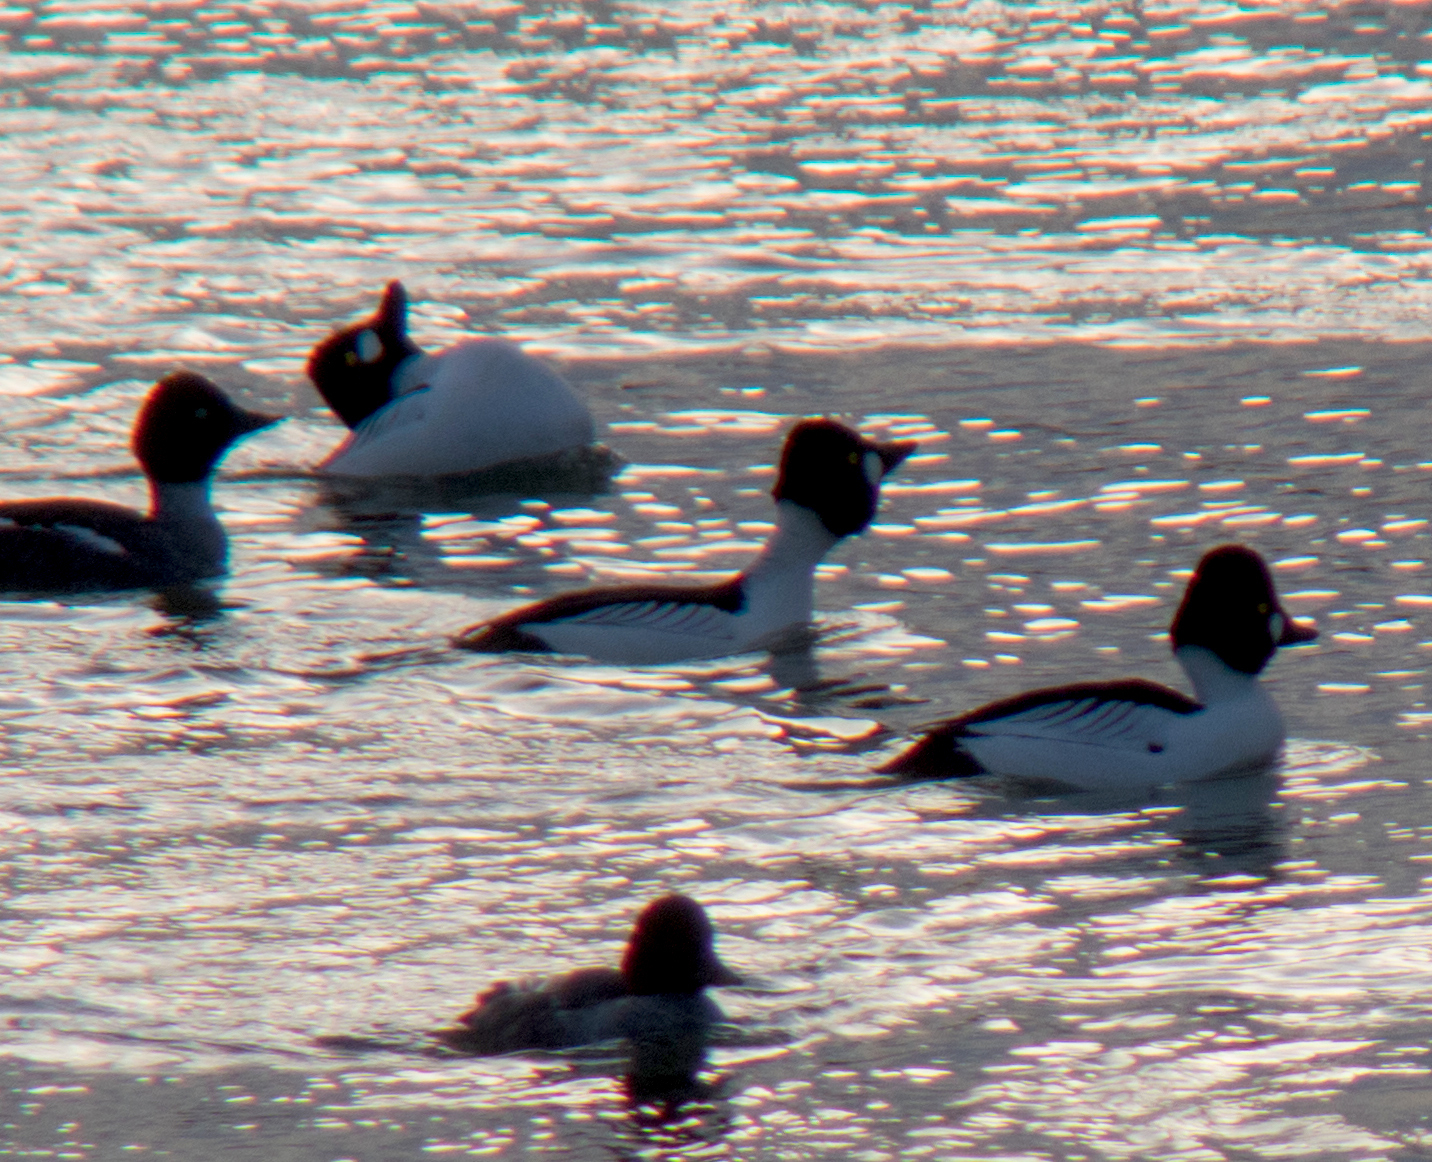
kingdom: Animalia
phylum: Chordata
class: Aves
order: Anseriformes
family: Anatidae
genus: Bucephala
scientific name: Bucephala clangula
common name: Common goldeneye
